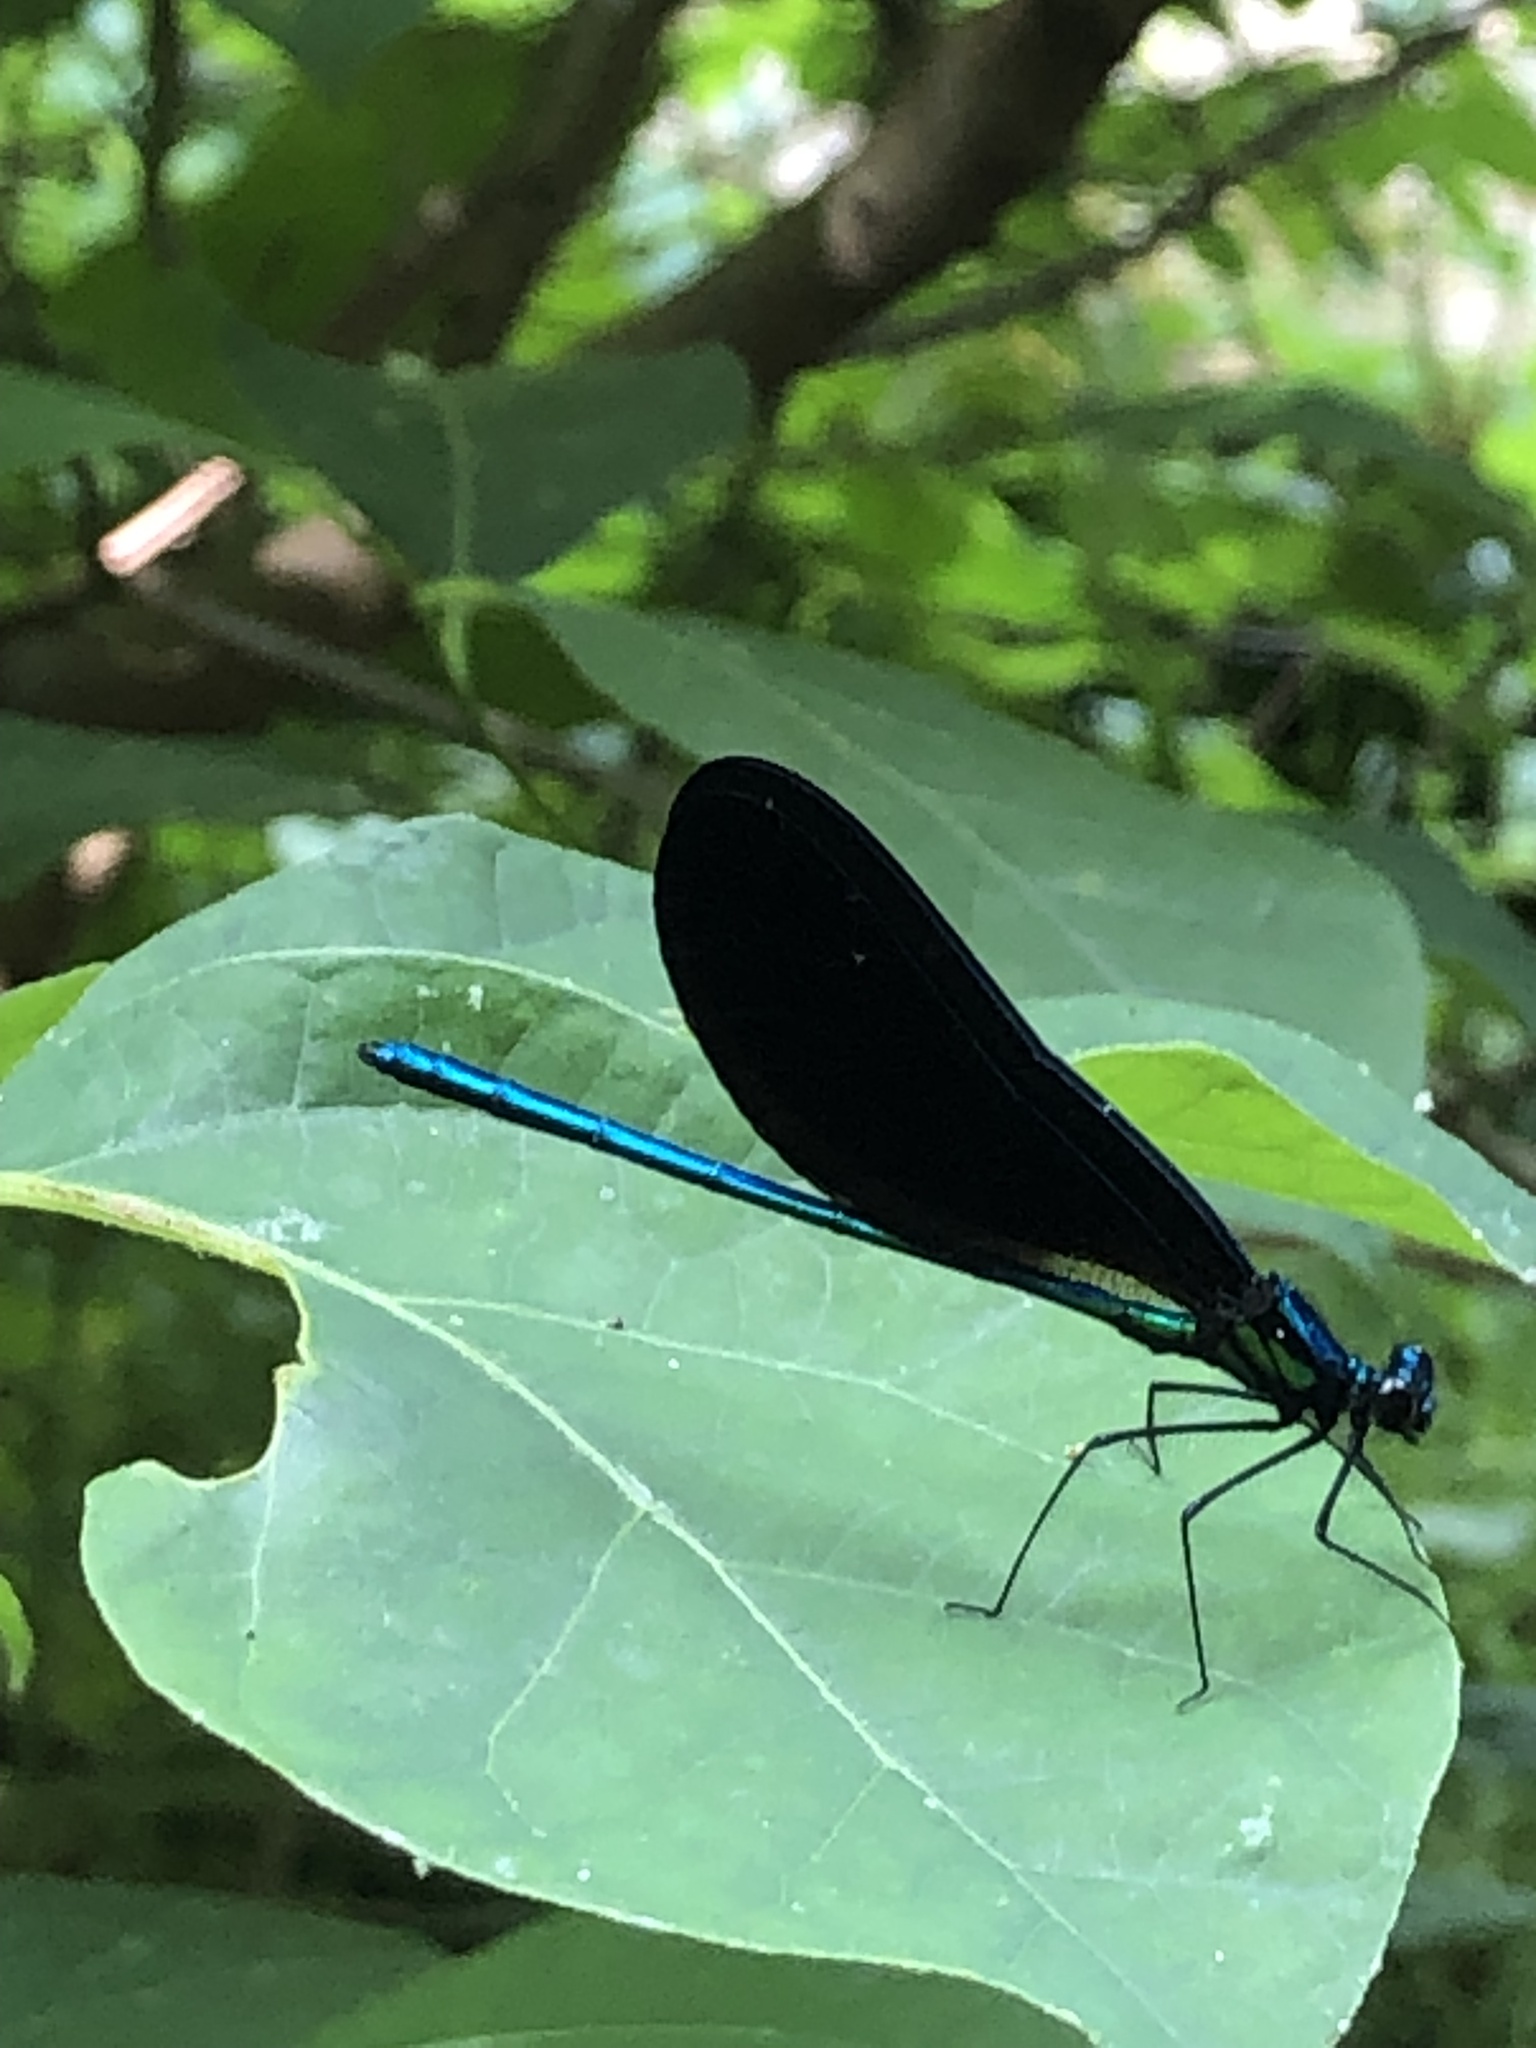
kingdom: Animalia
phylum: Arthropoda
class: Insecta
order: Odonata
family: Calopterygidae
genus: Calopteryx
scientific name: Calopteryx maculata
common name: Ebony jewelwing
